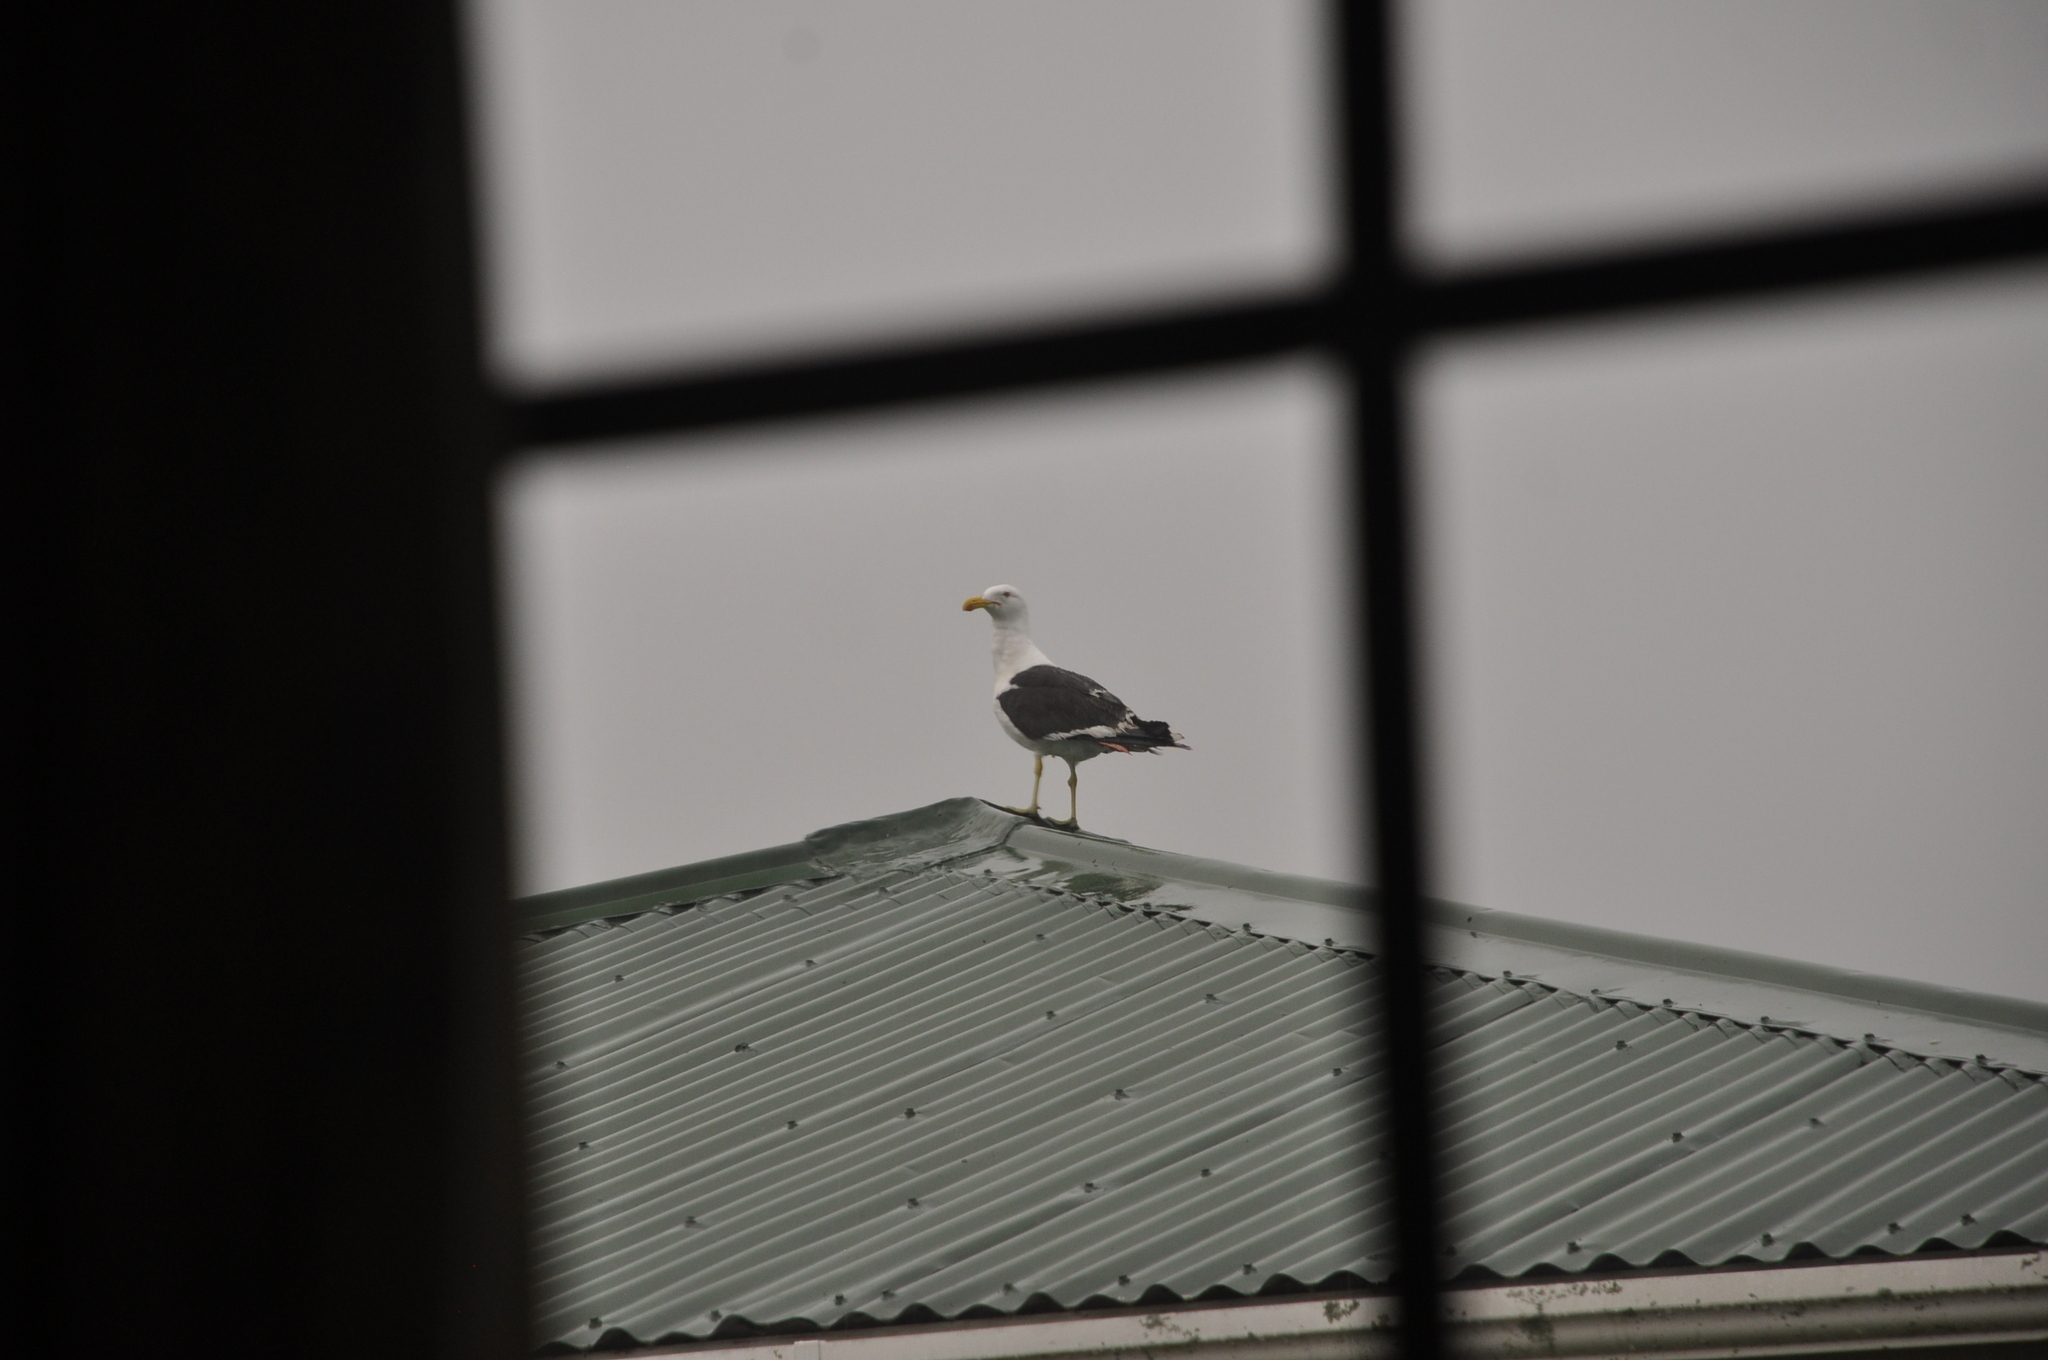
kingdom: Animalia
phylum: Chordata
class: Aves
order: Charadriiformes
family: Laridae
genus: Larus
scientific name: Larus dominicanus
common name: Kelp gull
